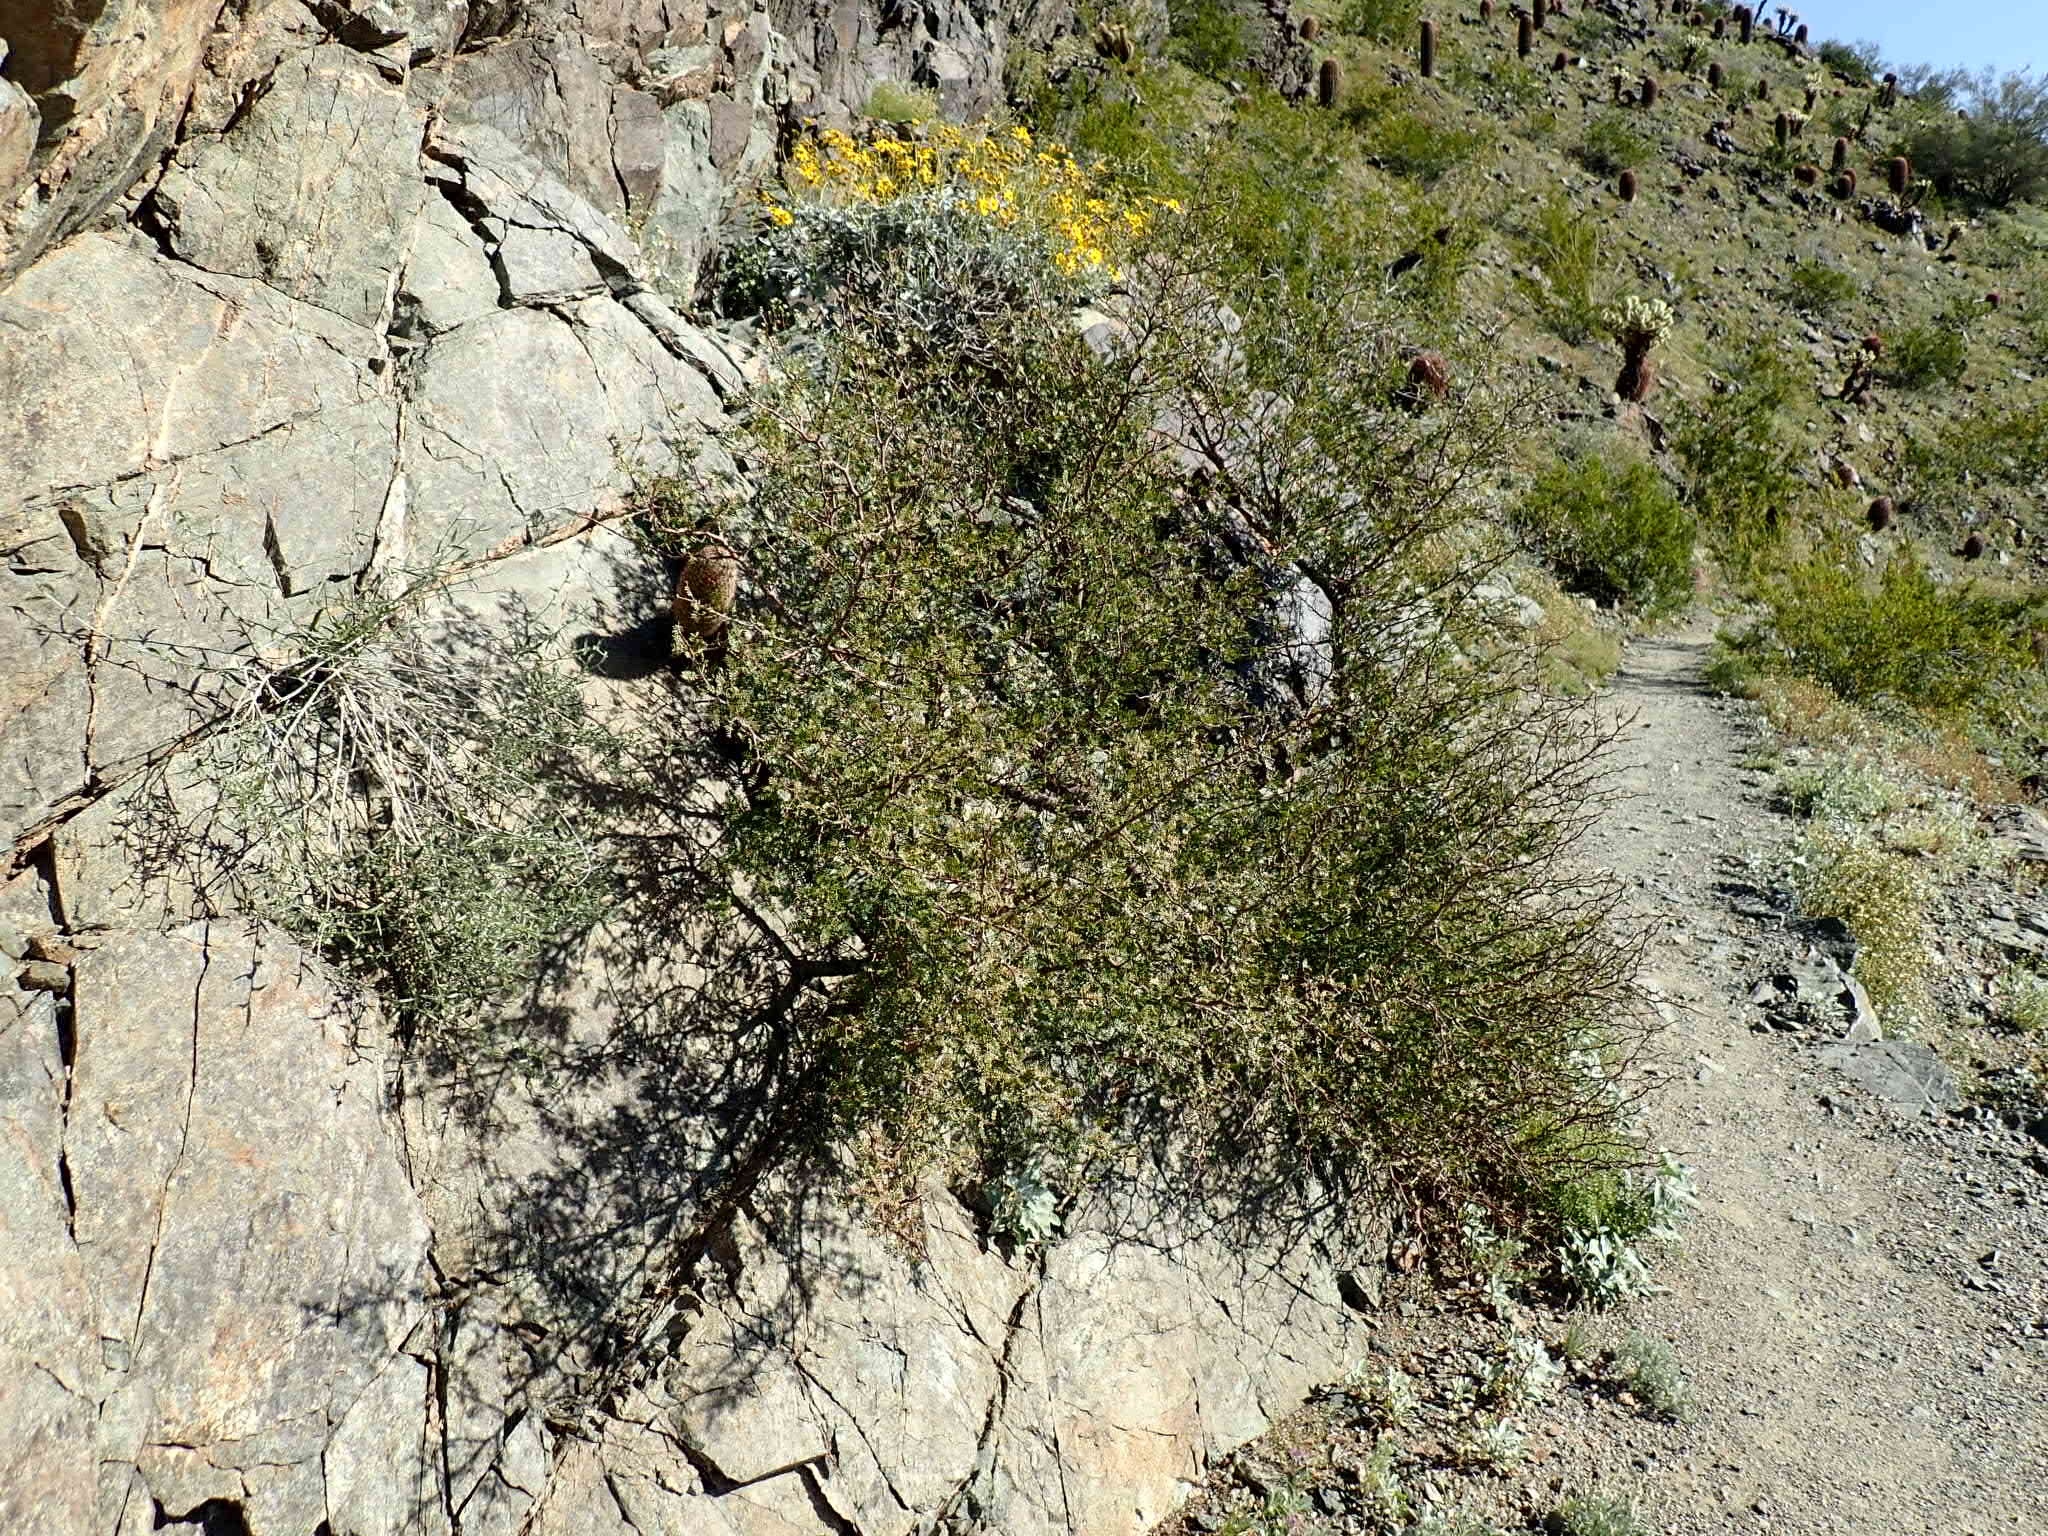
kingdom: Plantae
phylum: Tracheophyta
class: Magnoliopsida
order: Sapindales
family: Burseraceae
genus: Bursera
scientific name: Bursera microphylla
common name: Elephant tree
